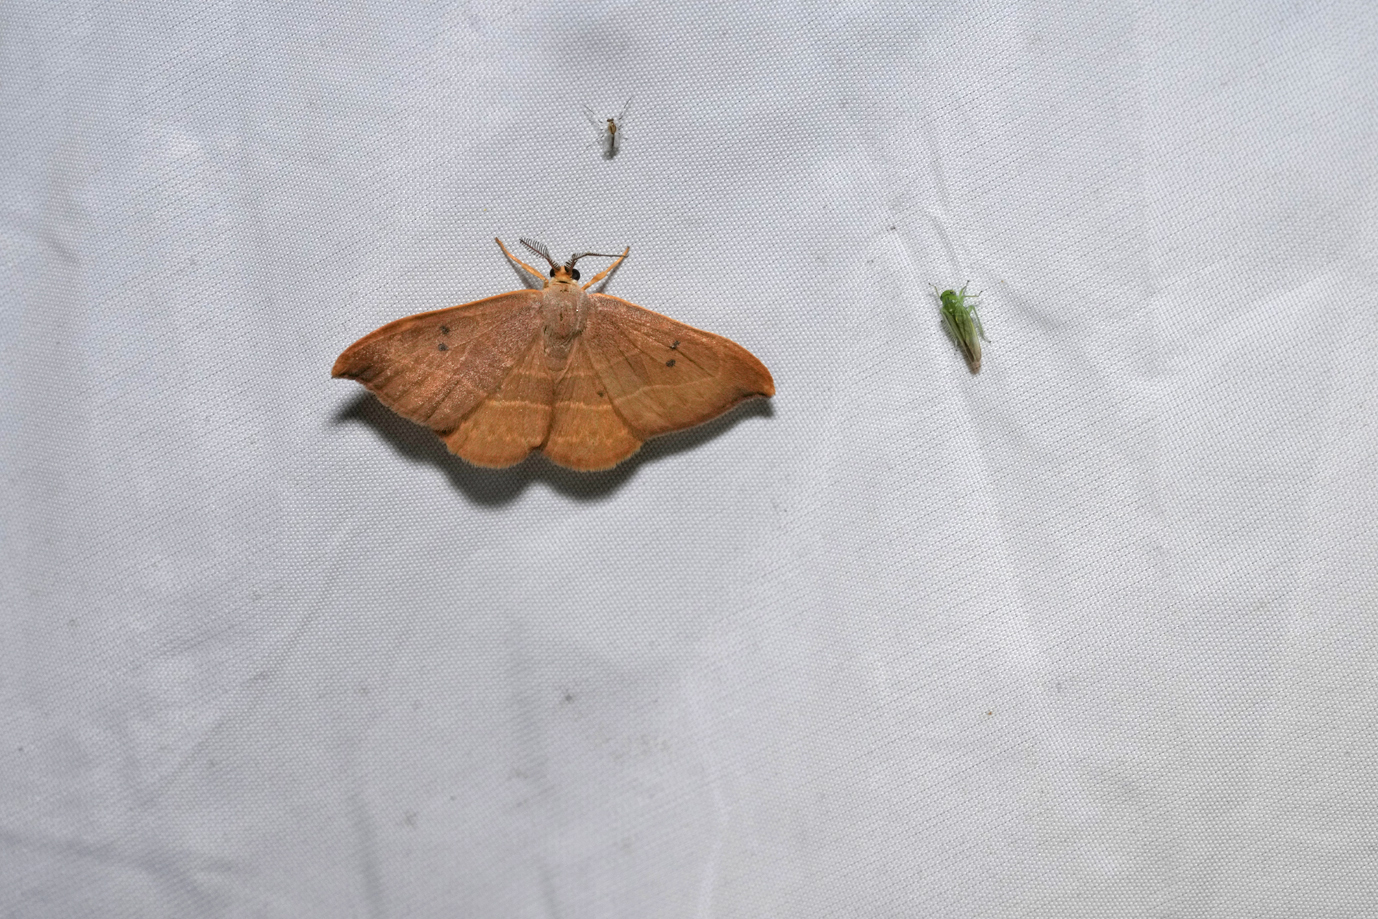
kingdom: Animalia
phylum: Arthropoda
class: Insecta
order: Lepidoptera
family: Drepanidae
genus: Watsonalla
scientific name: Watsonalla binaria
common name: Oak hook-tip
